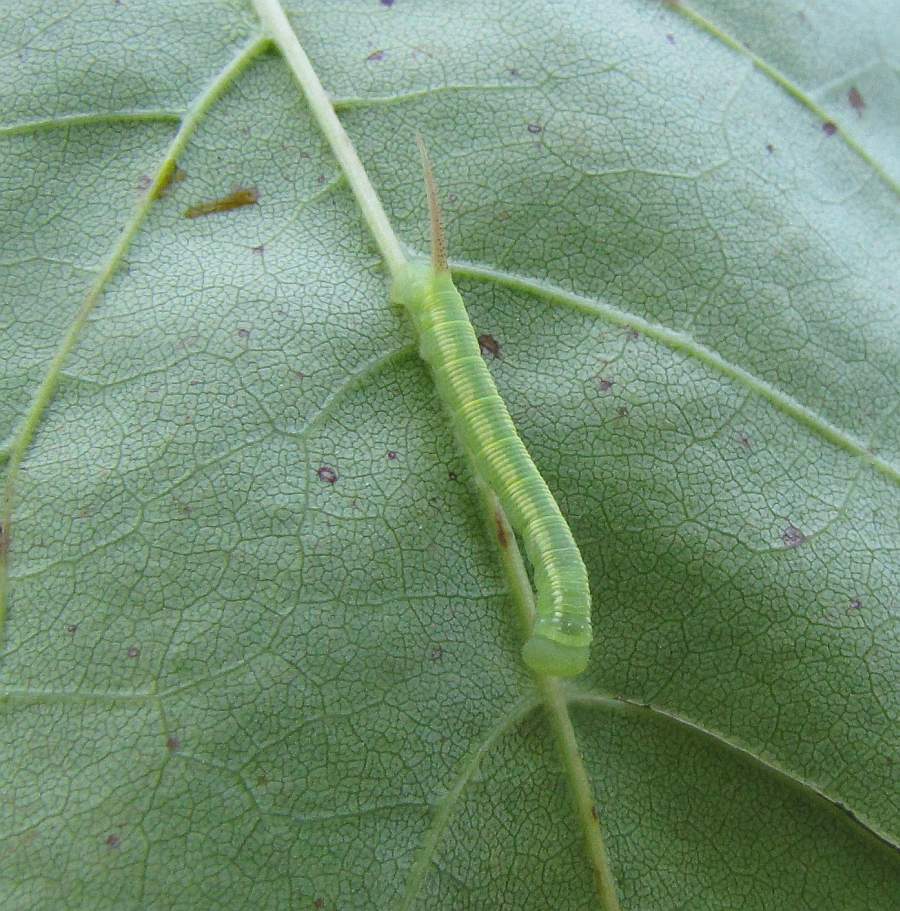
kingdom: Animalia
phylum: Arthropoda
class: Insecta
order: Lepidoptera
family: Sphingidae
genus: Ceratomia
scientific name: Ceratomia undulosa
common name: Waved sphinx
